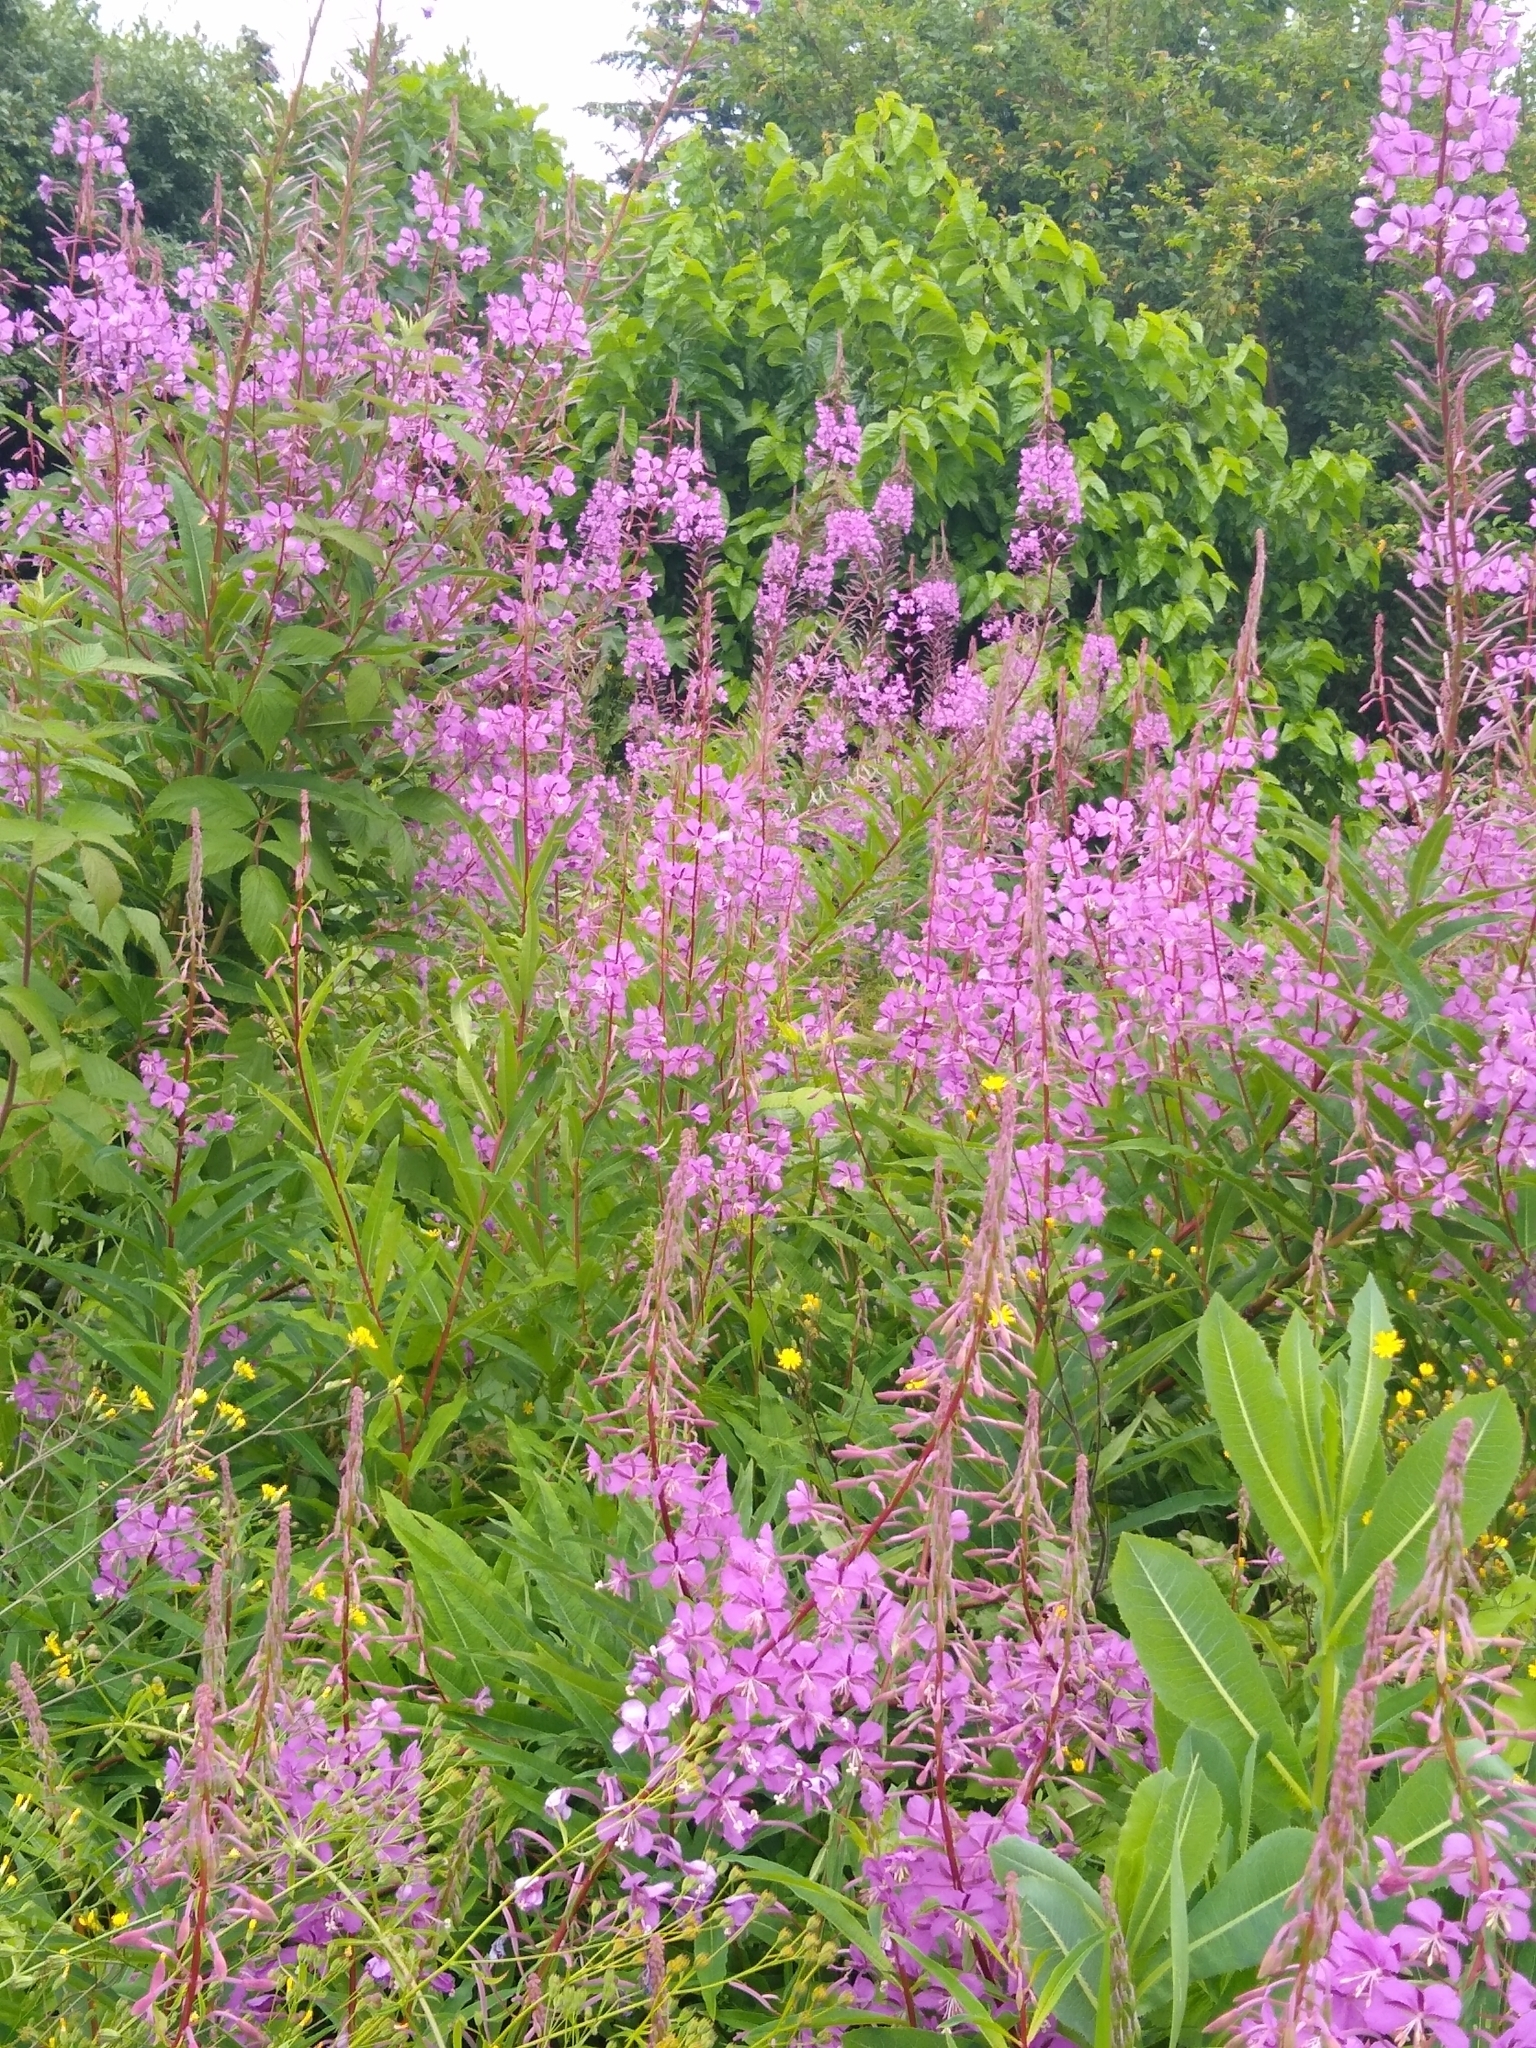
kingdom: Plantae
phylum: Tracheophyta
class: Magnoliopsida
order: Myrtales
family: Onagraceae
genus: Chamaenerion
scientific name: Chamaenerion angustifolium
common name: Fireweed
